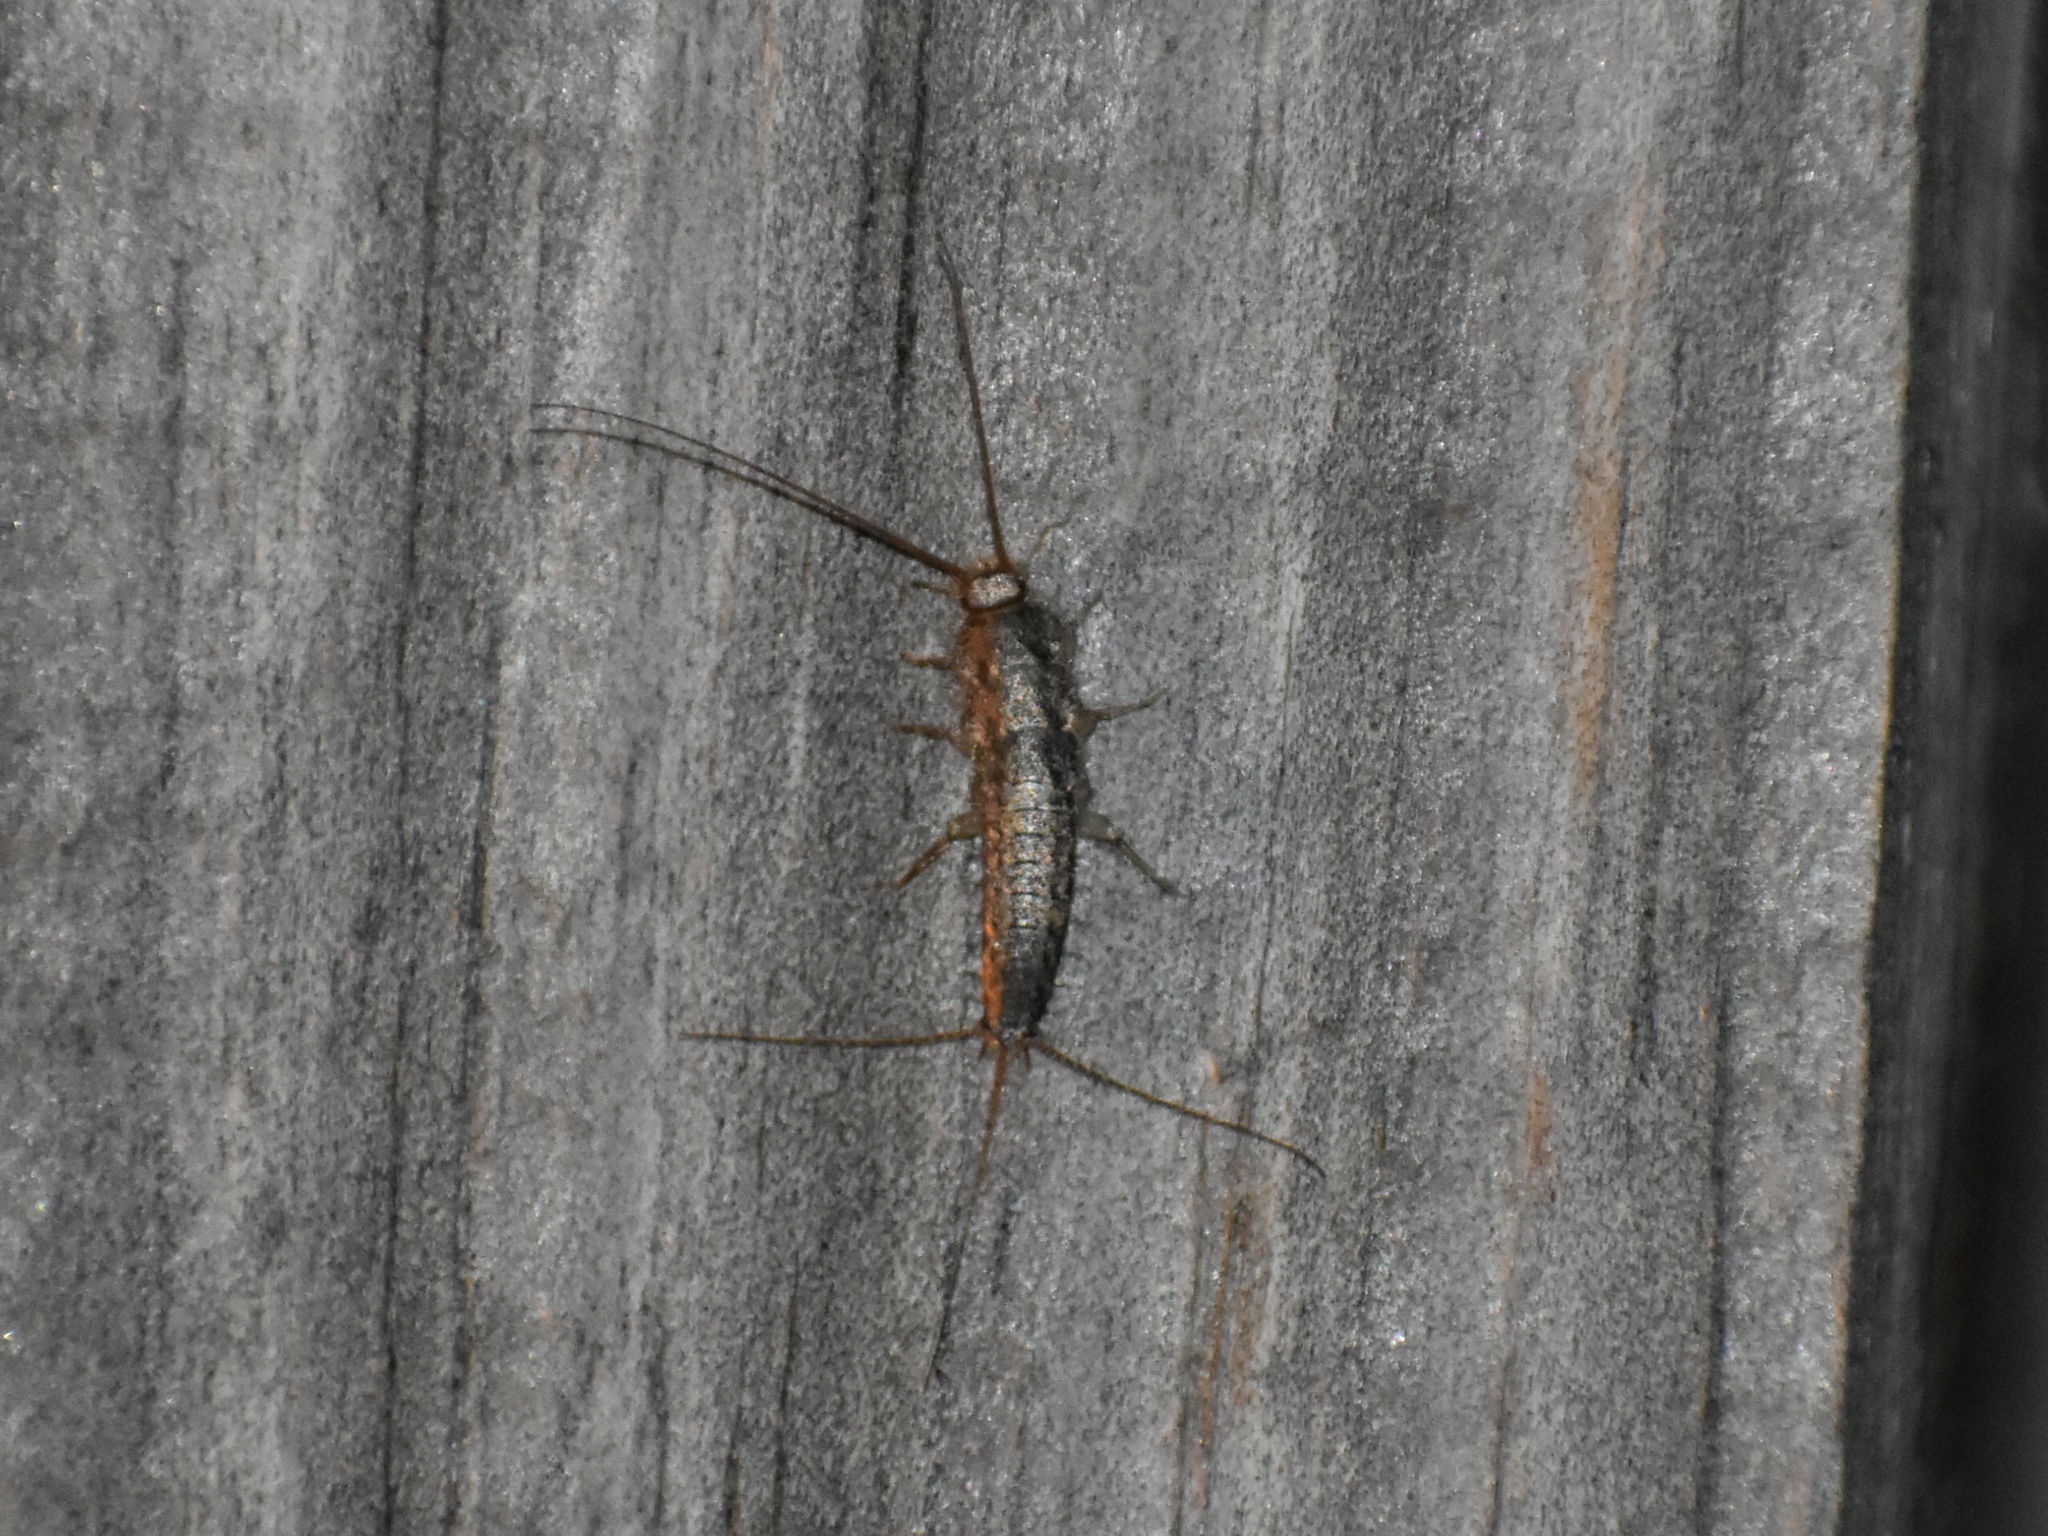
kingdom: Animalia
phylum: Arthropoda
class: Insecta
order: Zygentoma
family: Lepismatidae
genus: Ctenolepisma
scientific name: Ctenolepisma lineata
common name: Four-lined silverfish
